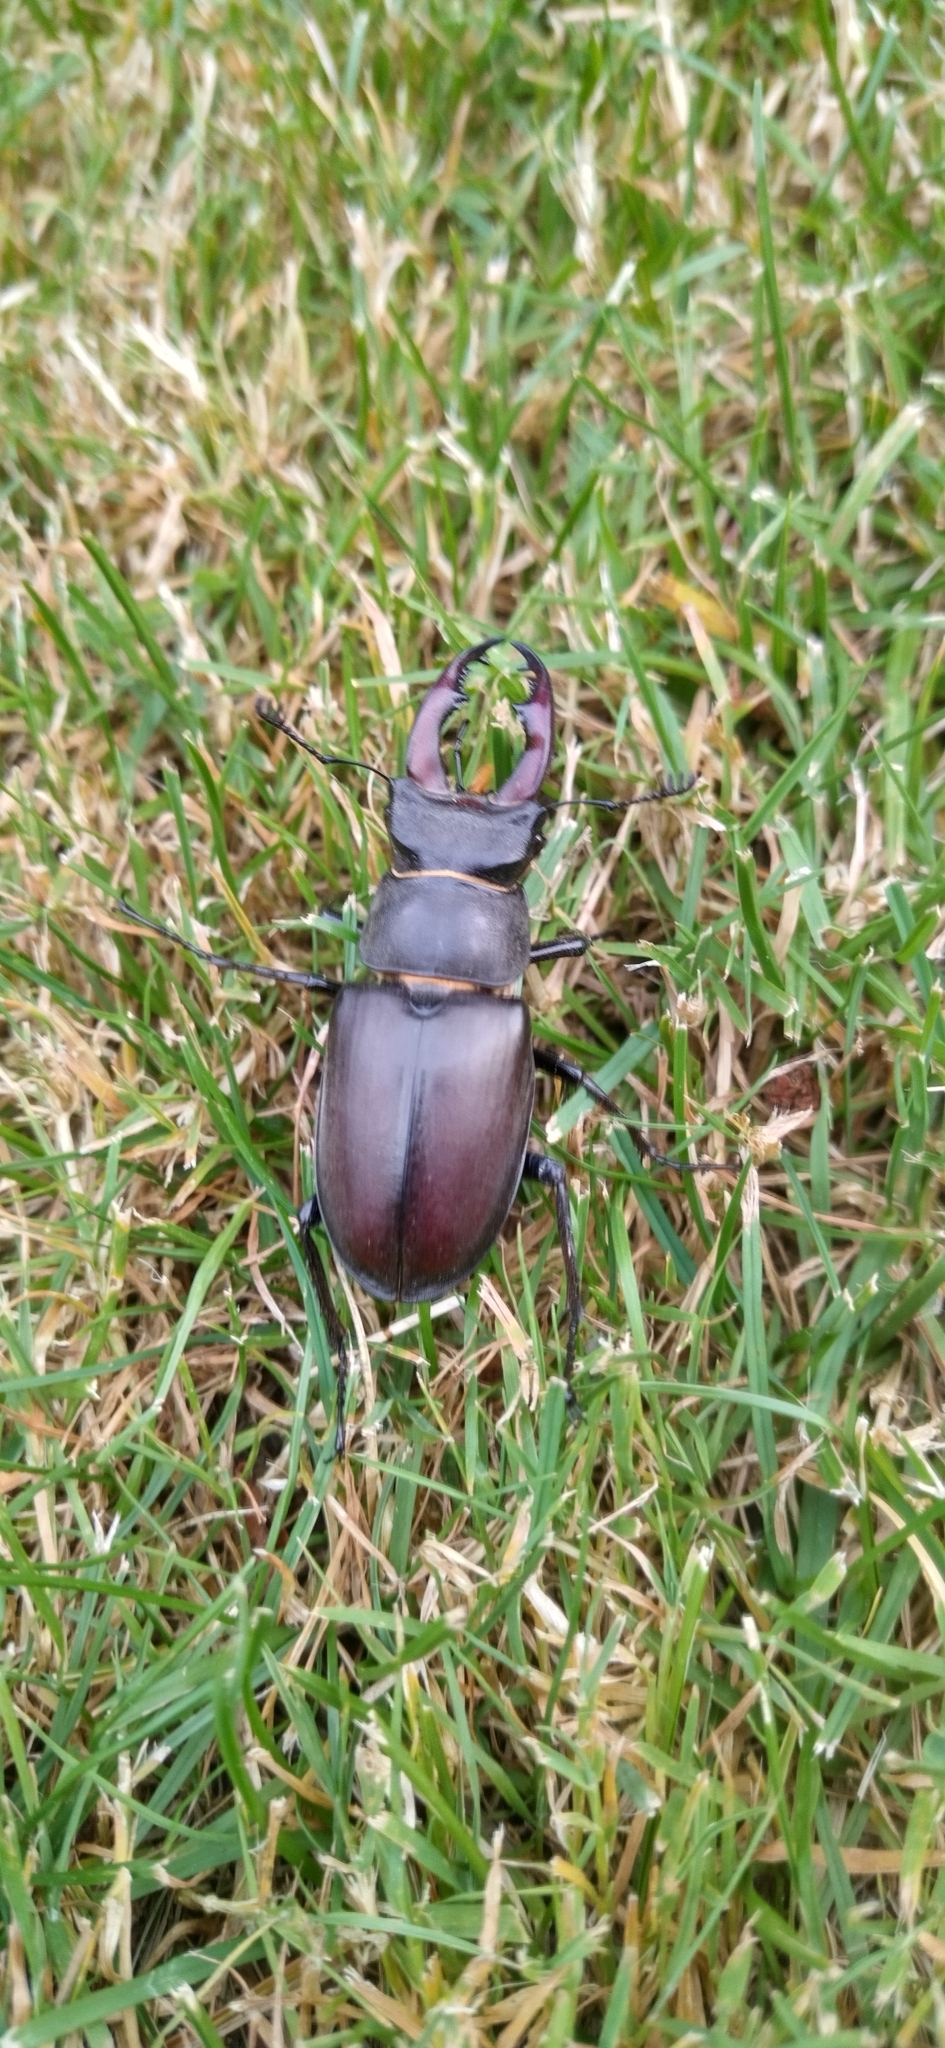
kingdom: Animalia
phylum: Arthropoda
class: Insecta
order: Coleoptera
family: Lucanidae
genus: Lucanus
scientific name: Lucanus cervus
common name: Stag beetle
